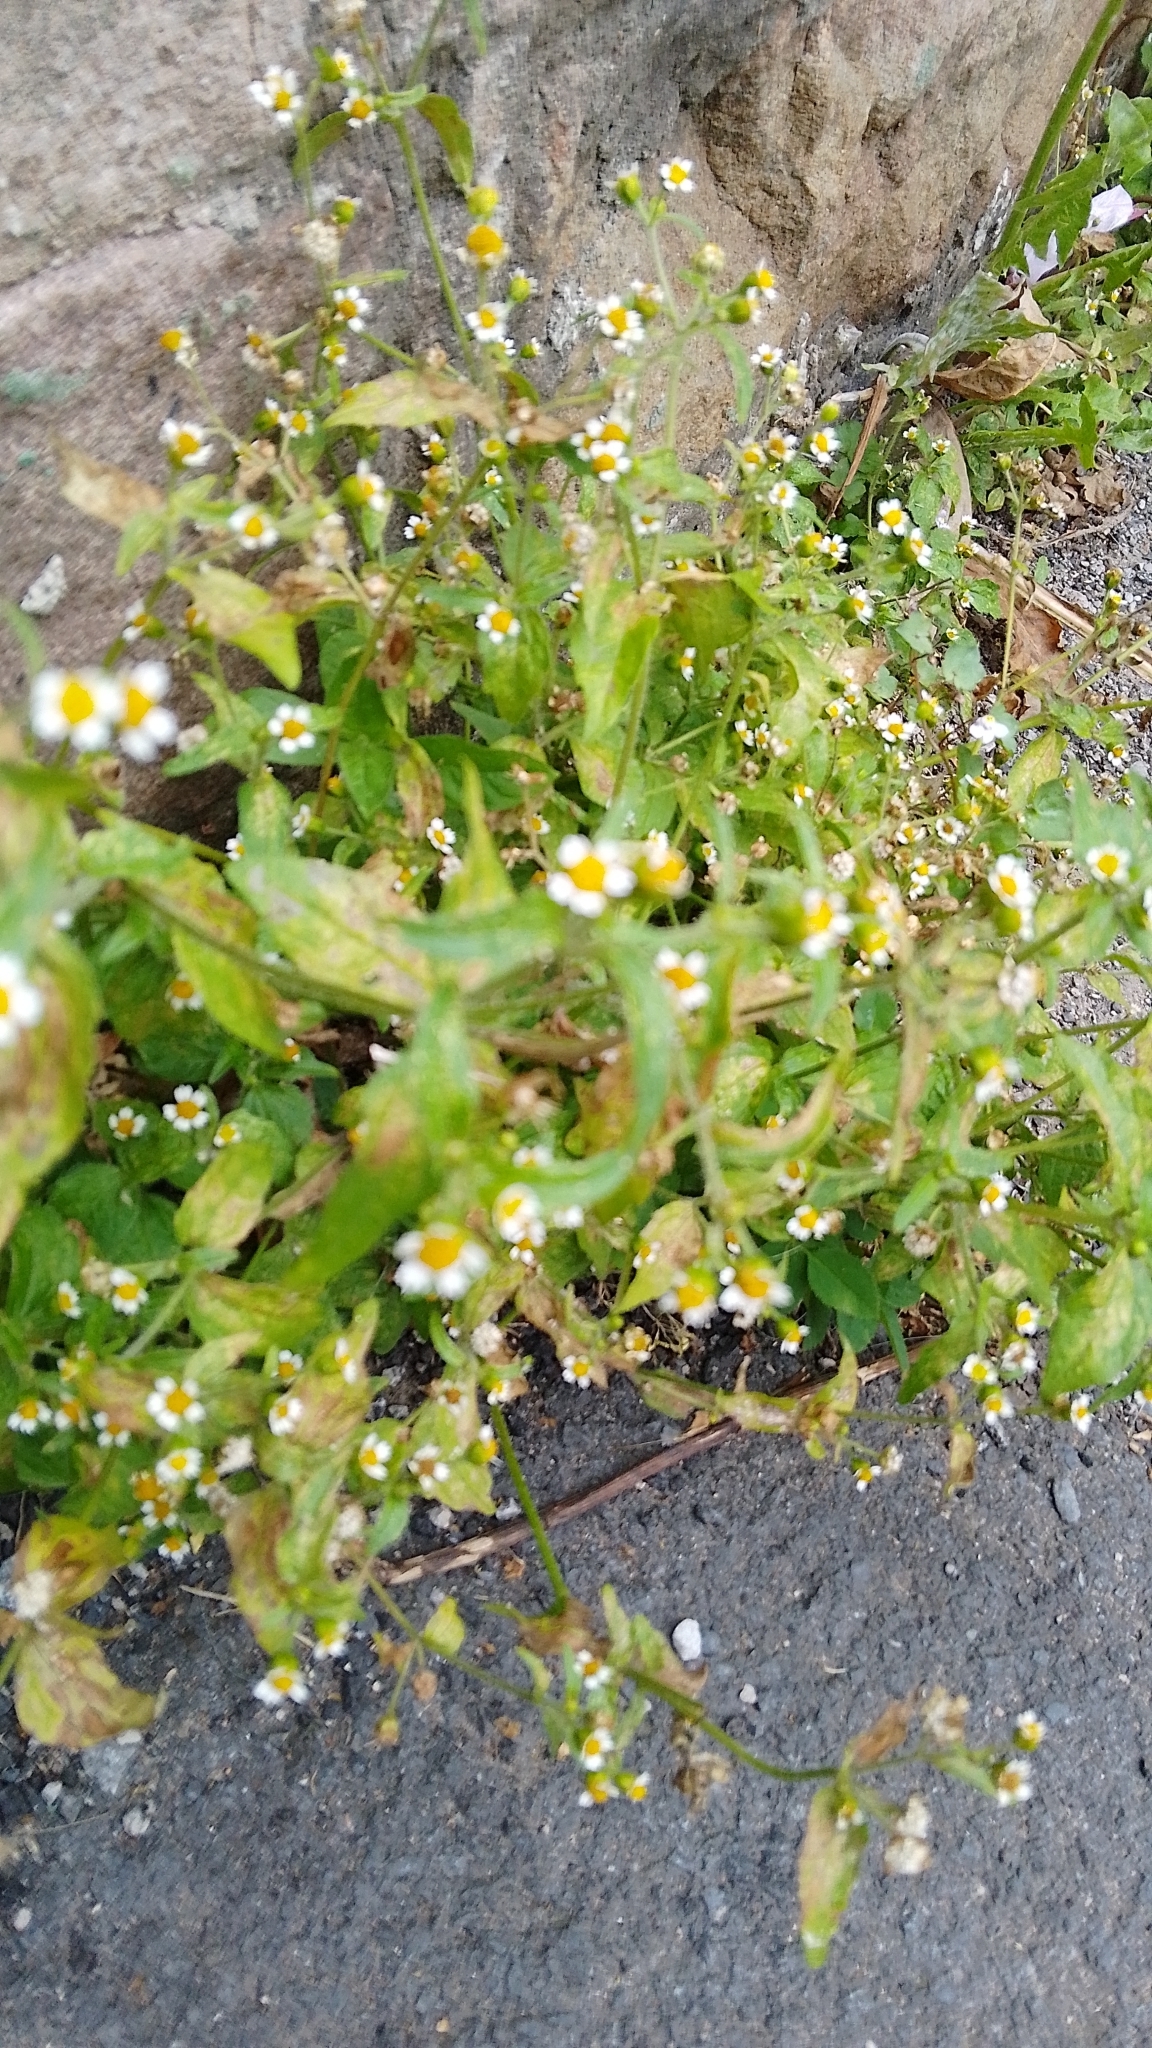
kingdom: Plantae
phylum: Tracheophyta
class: Magnoliopsida
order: Asterales
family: Asteraceae
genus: Galinsoga
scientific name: Galinsoga parviflora
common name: Gallant soldier
